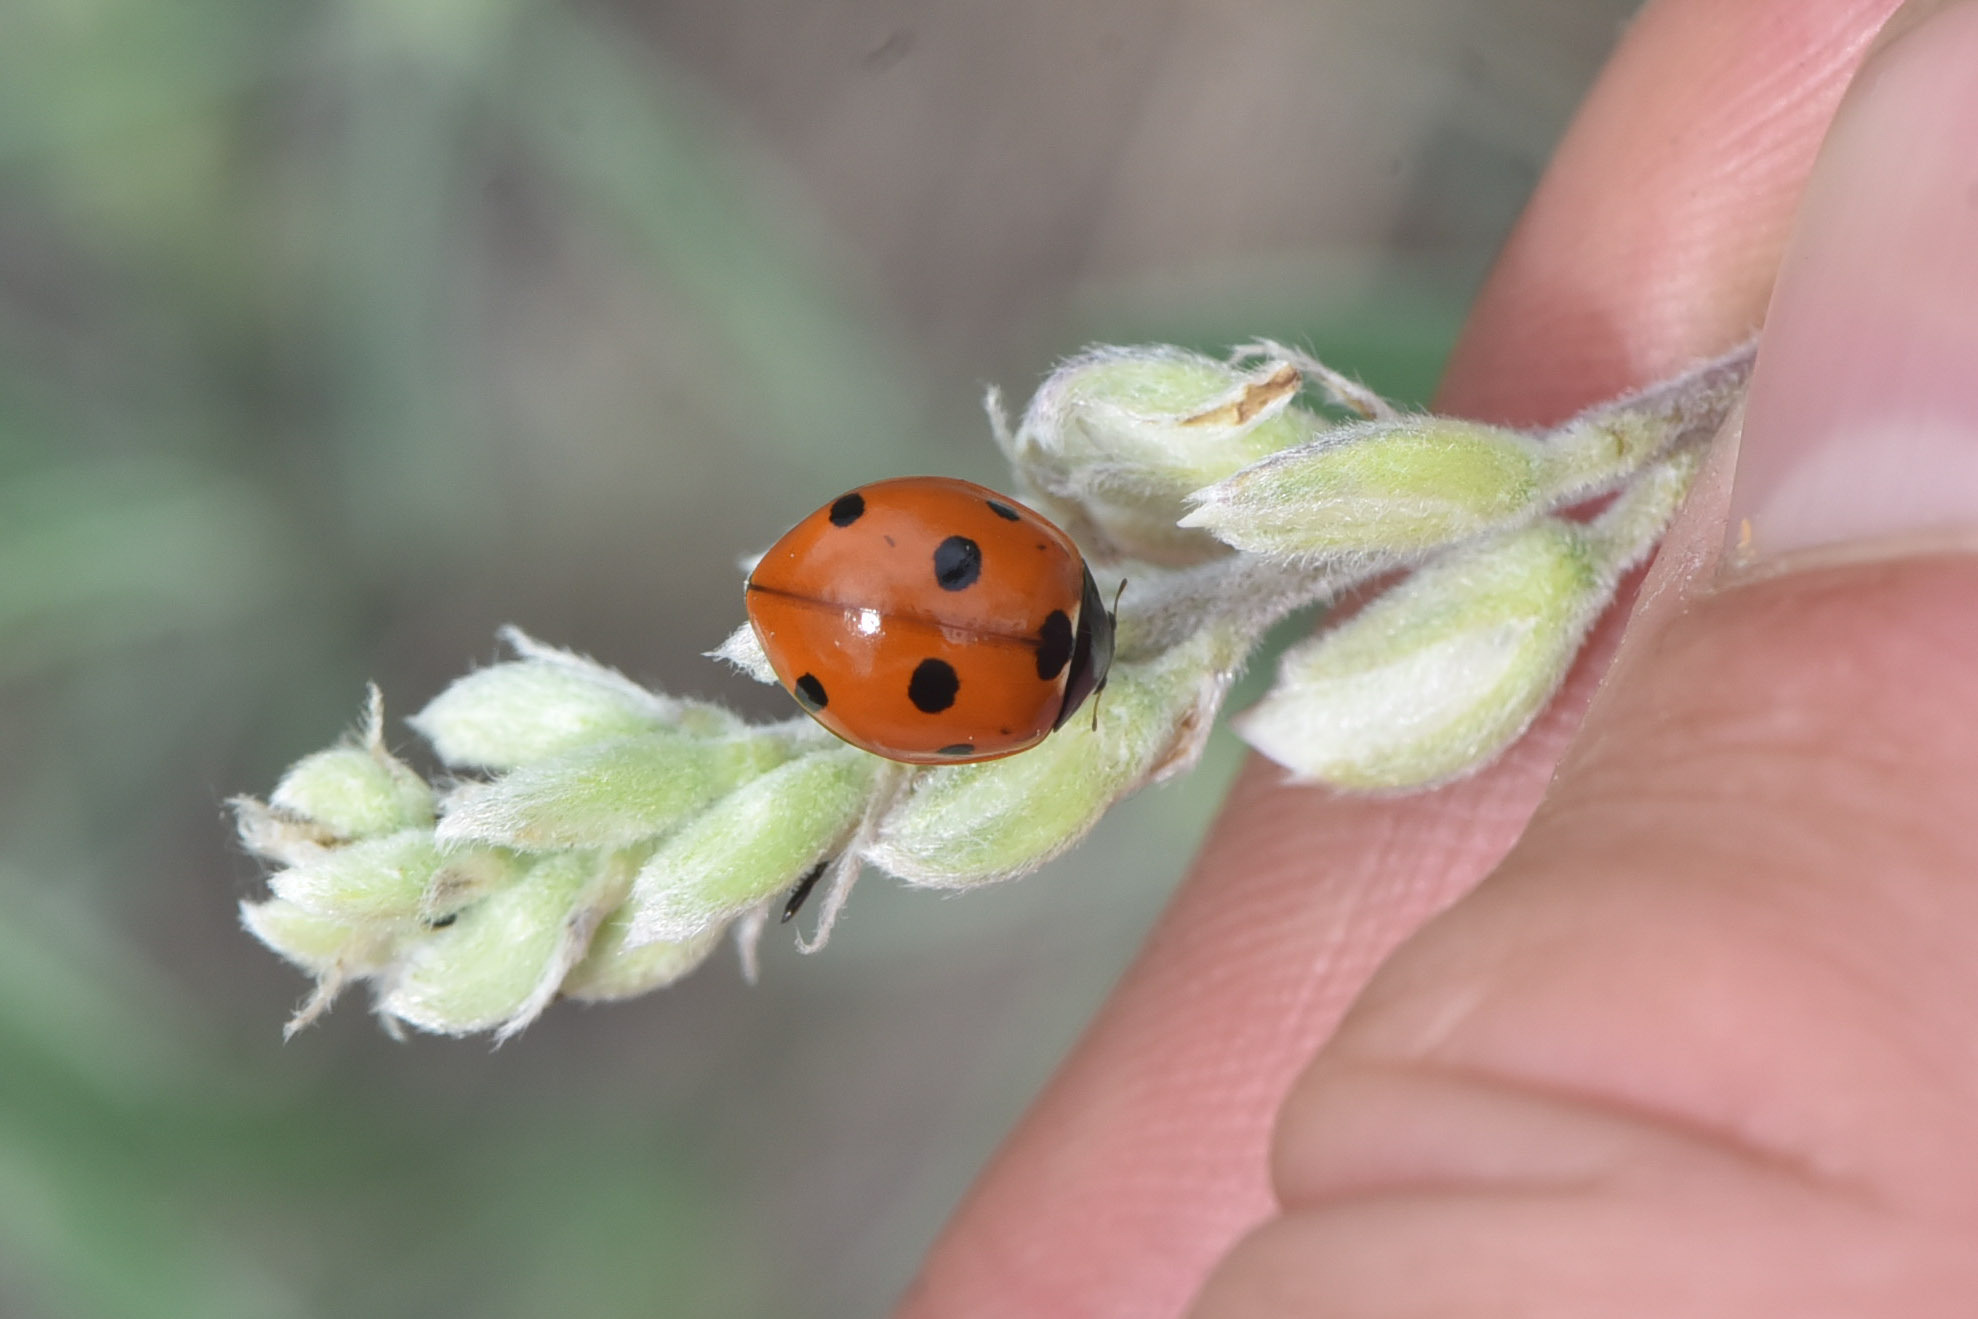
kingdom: Animalia
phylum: Arthropoda
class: Insecta
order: Coleoptera
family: Coccinellidae
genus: Coccinella
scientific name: Coccinella septempunctata
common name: Sevenspotted lady beetle
